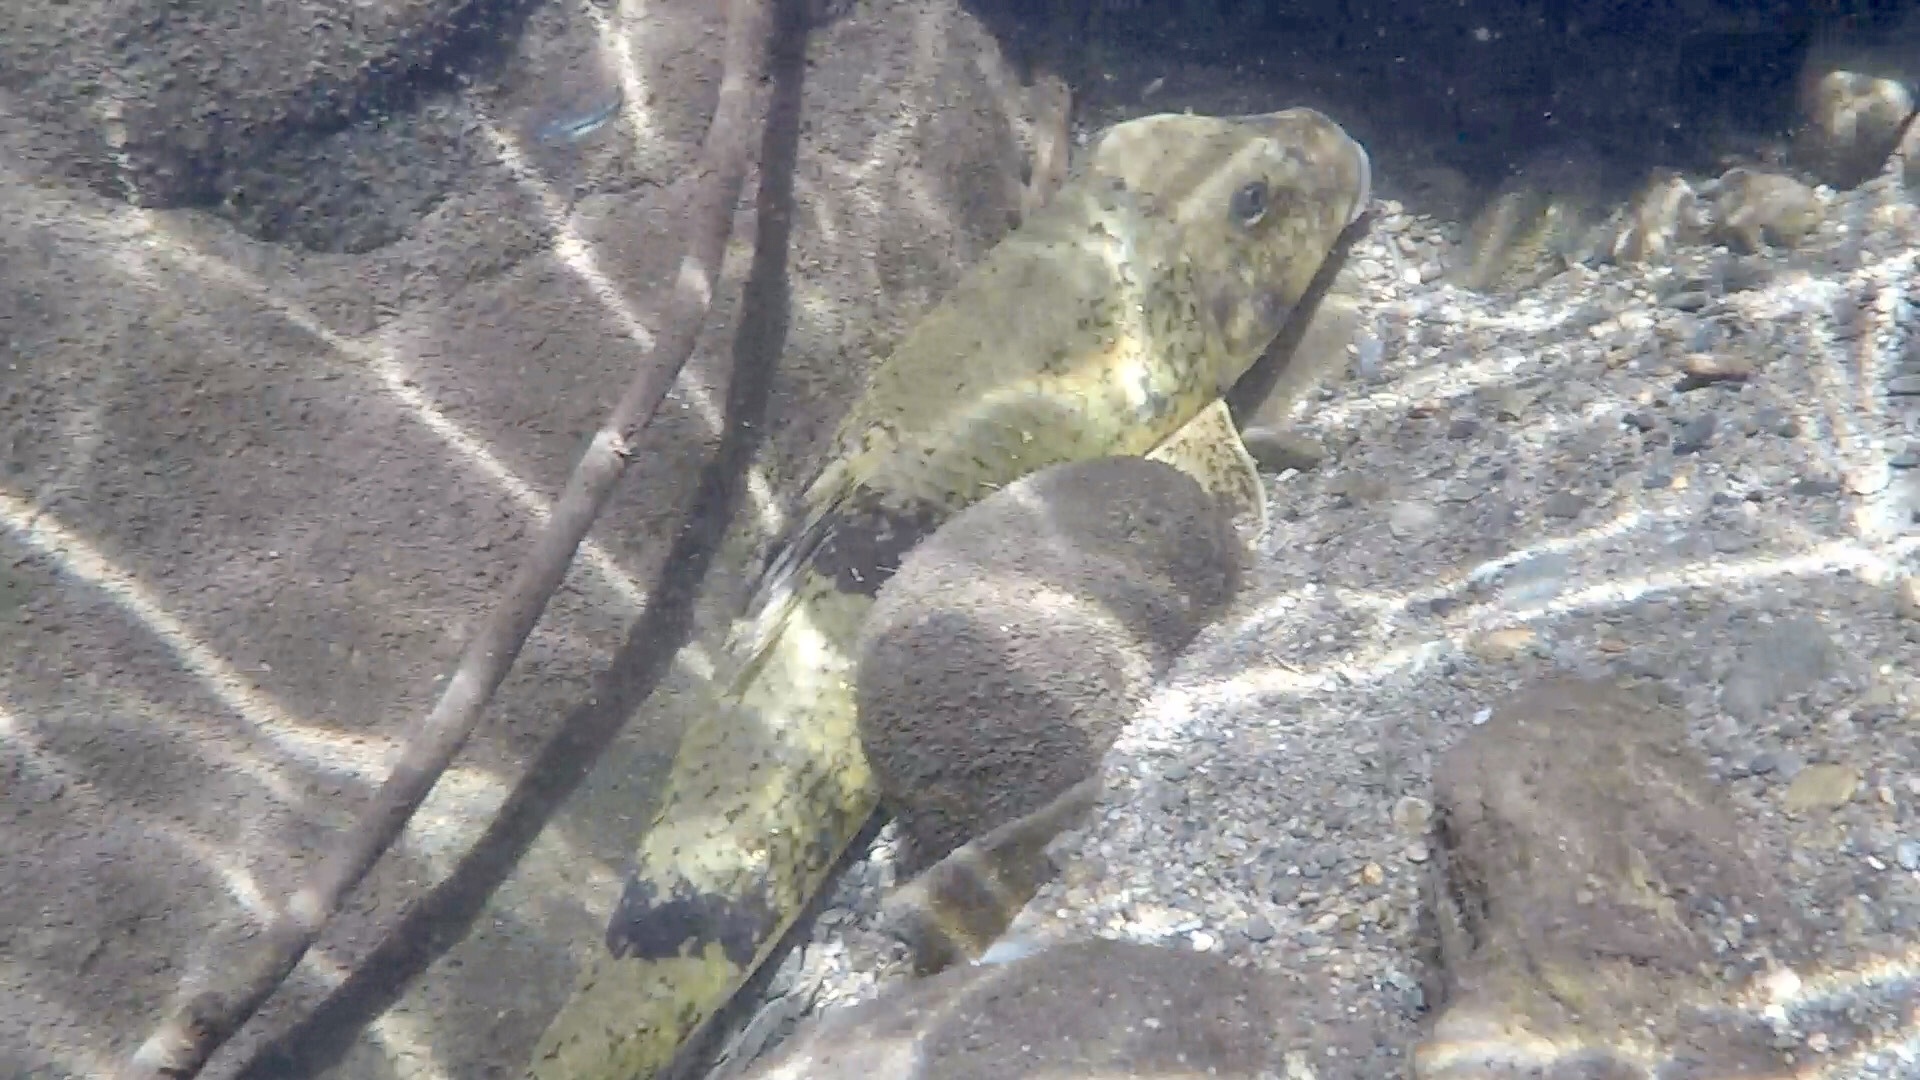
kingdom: Animalia
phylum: Chordata
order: Cypriniformes
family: Catostomidae
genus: Hypentelium
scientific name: Hypentelium nigricans
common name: Northern hog sucker
